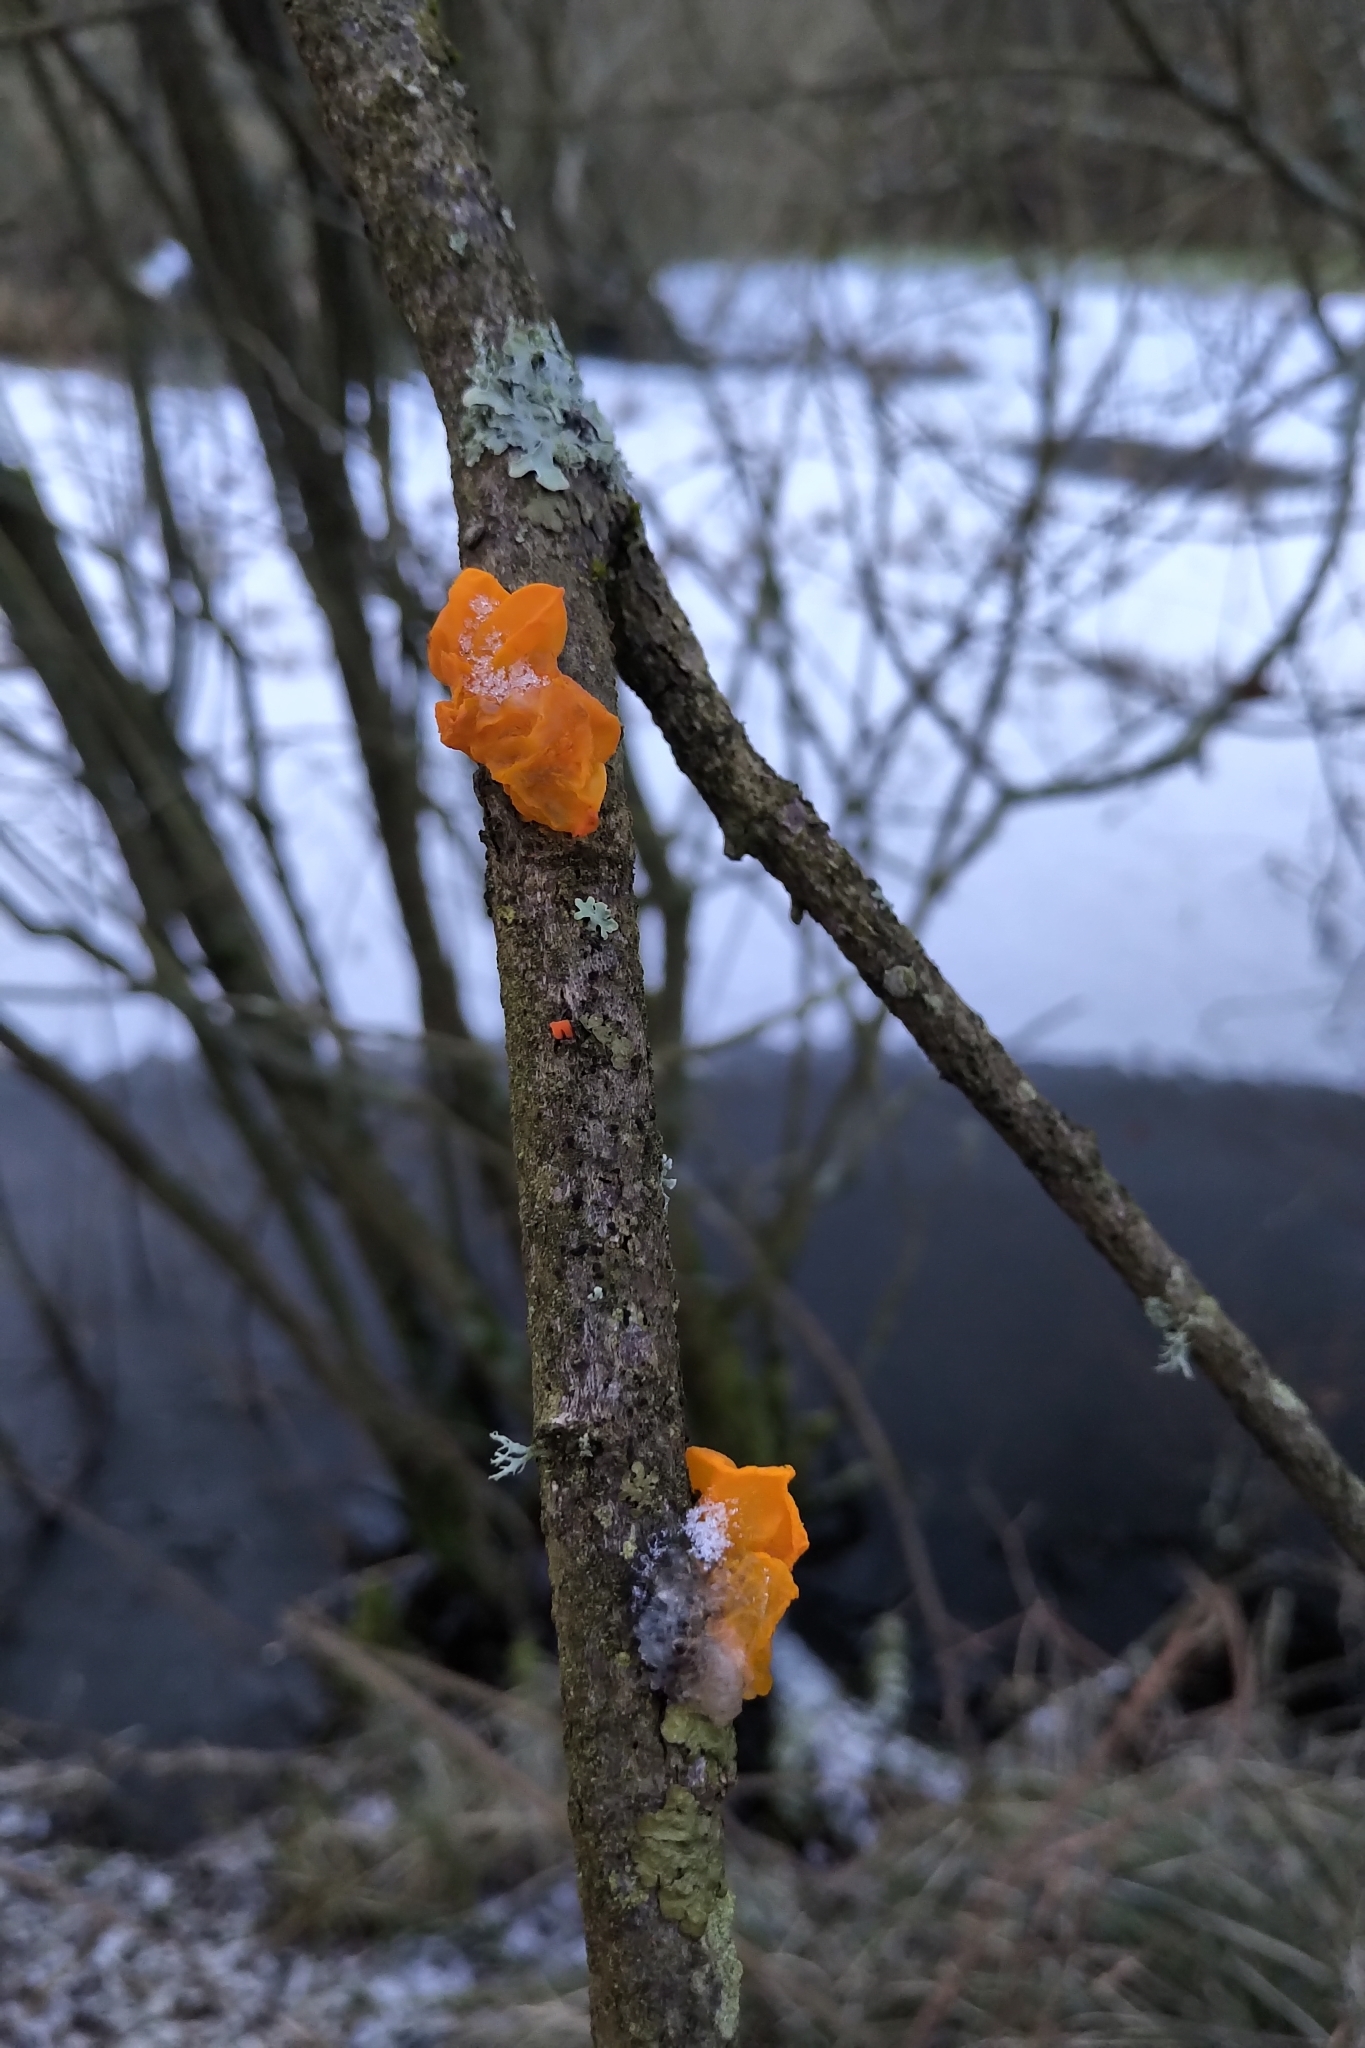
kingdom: Fungi
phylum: Basidiomycota
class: Tremellomycetes
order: Tremellales
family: Tremellaceae
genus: Tremella
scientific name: Tremella mesenterica
